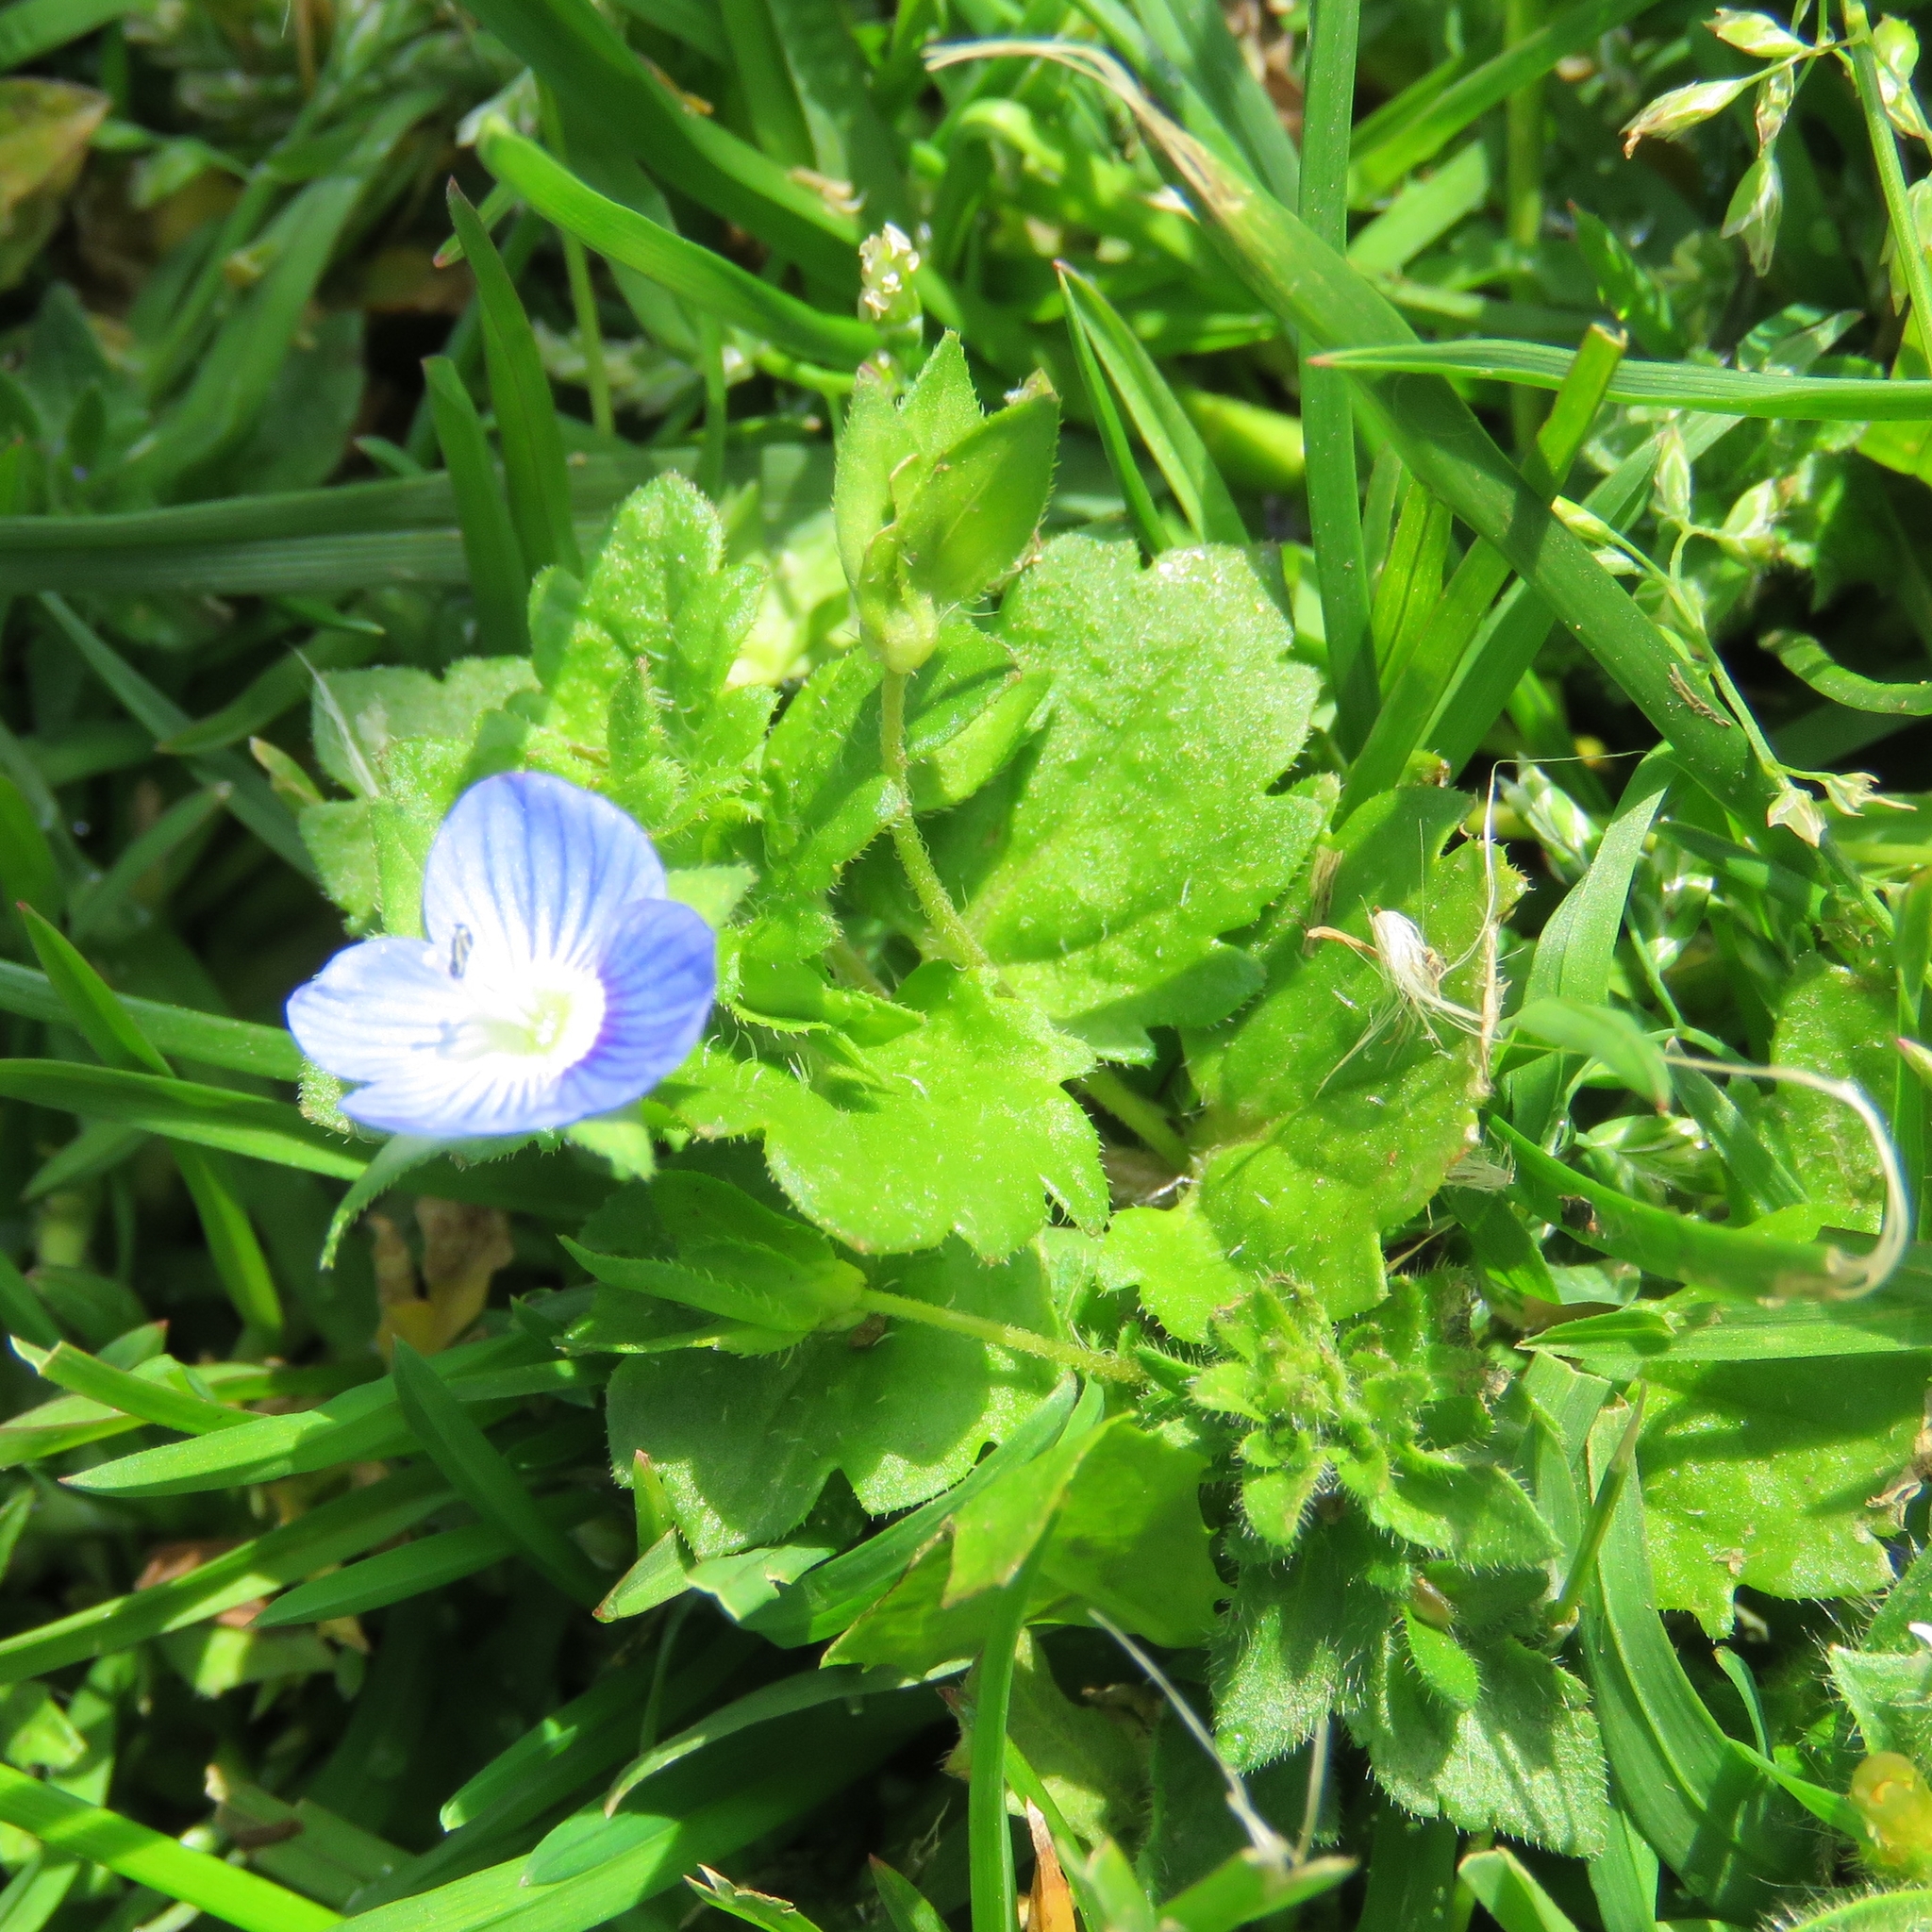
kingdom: Plantae
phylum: Tracheophyta
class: Magnoliopsida
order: Lamiales
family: Plantaginaceae
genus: Veronica
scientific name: Veronica persica
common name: Common field-speedwell
